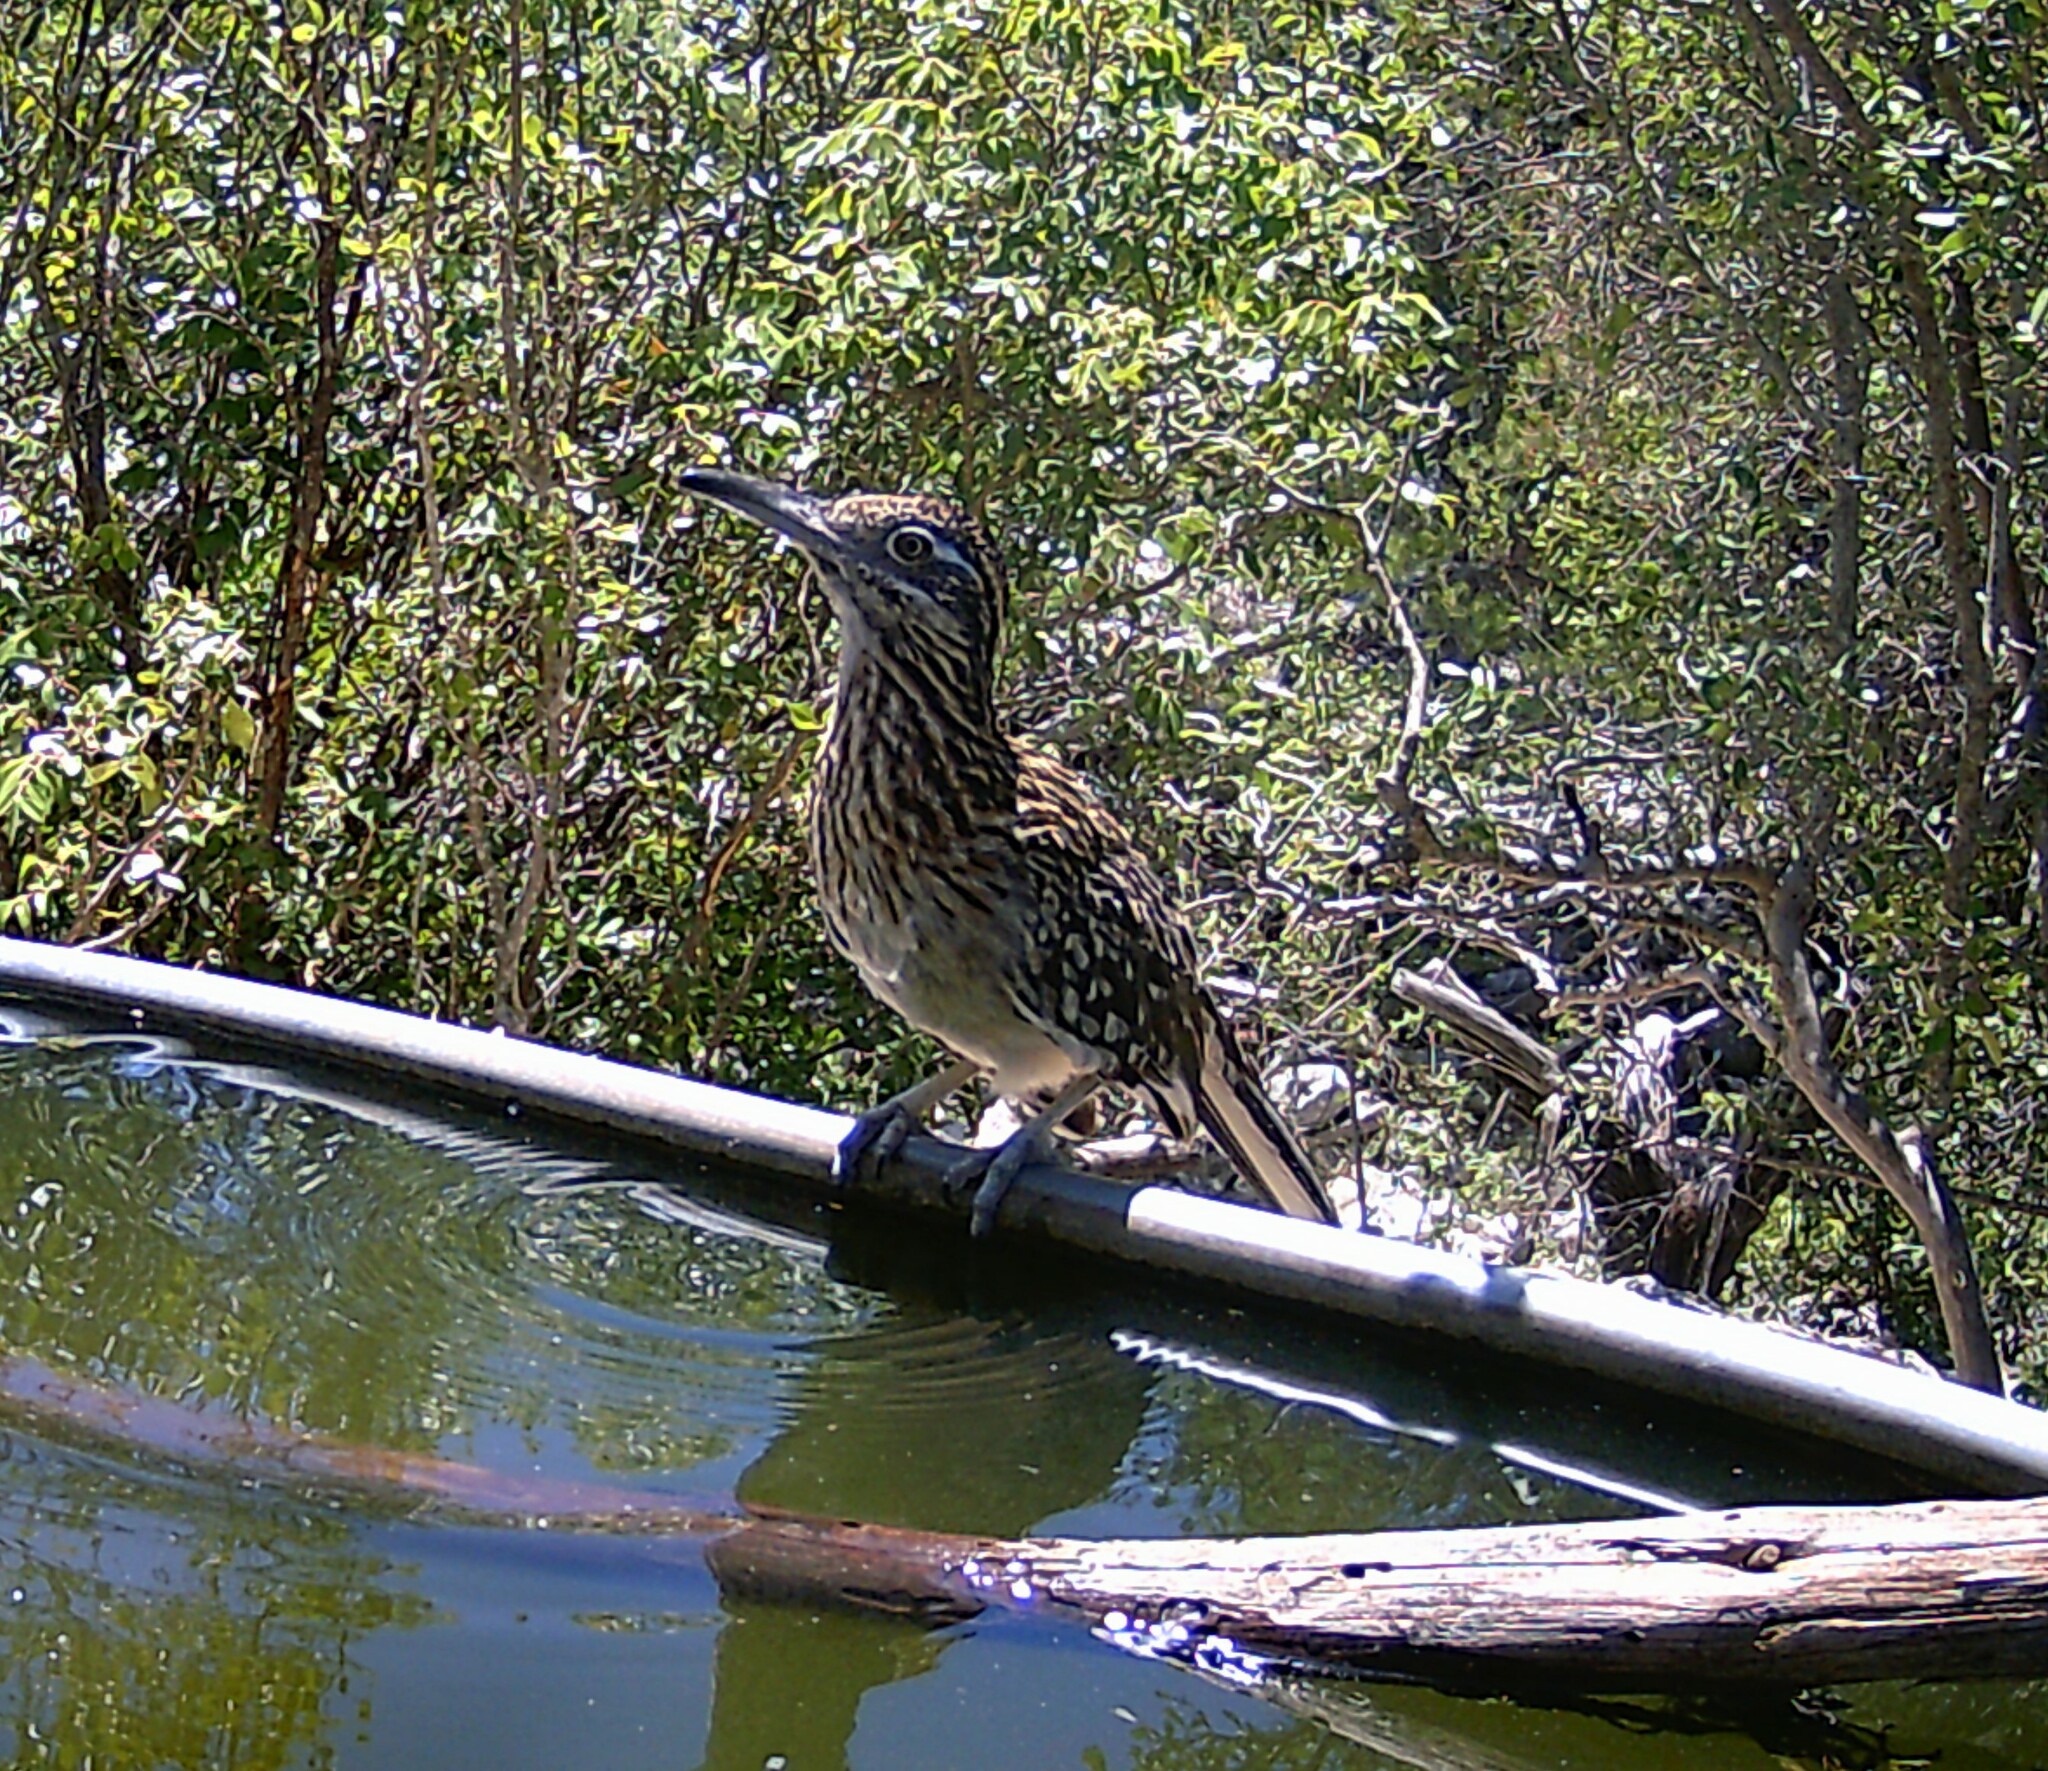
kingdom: Animalia
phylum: Chordata
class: Aves
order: Cuculiformes
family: Cuculidae
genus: Geococcyx
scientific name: Geococcyx californianus
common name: Greater roadrunner
